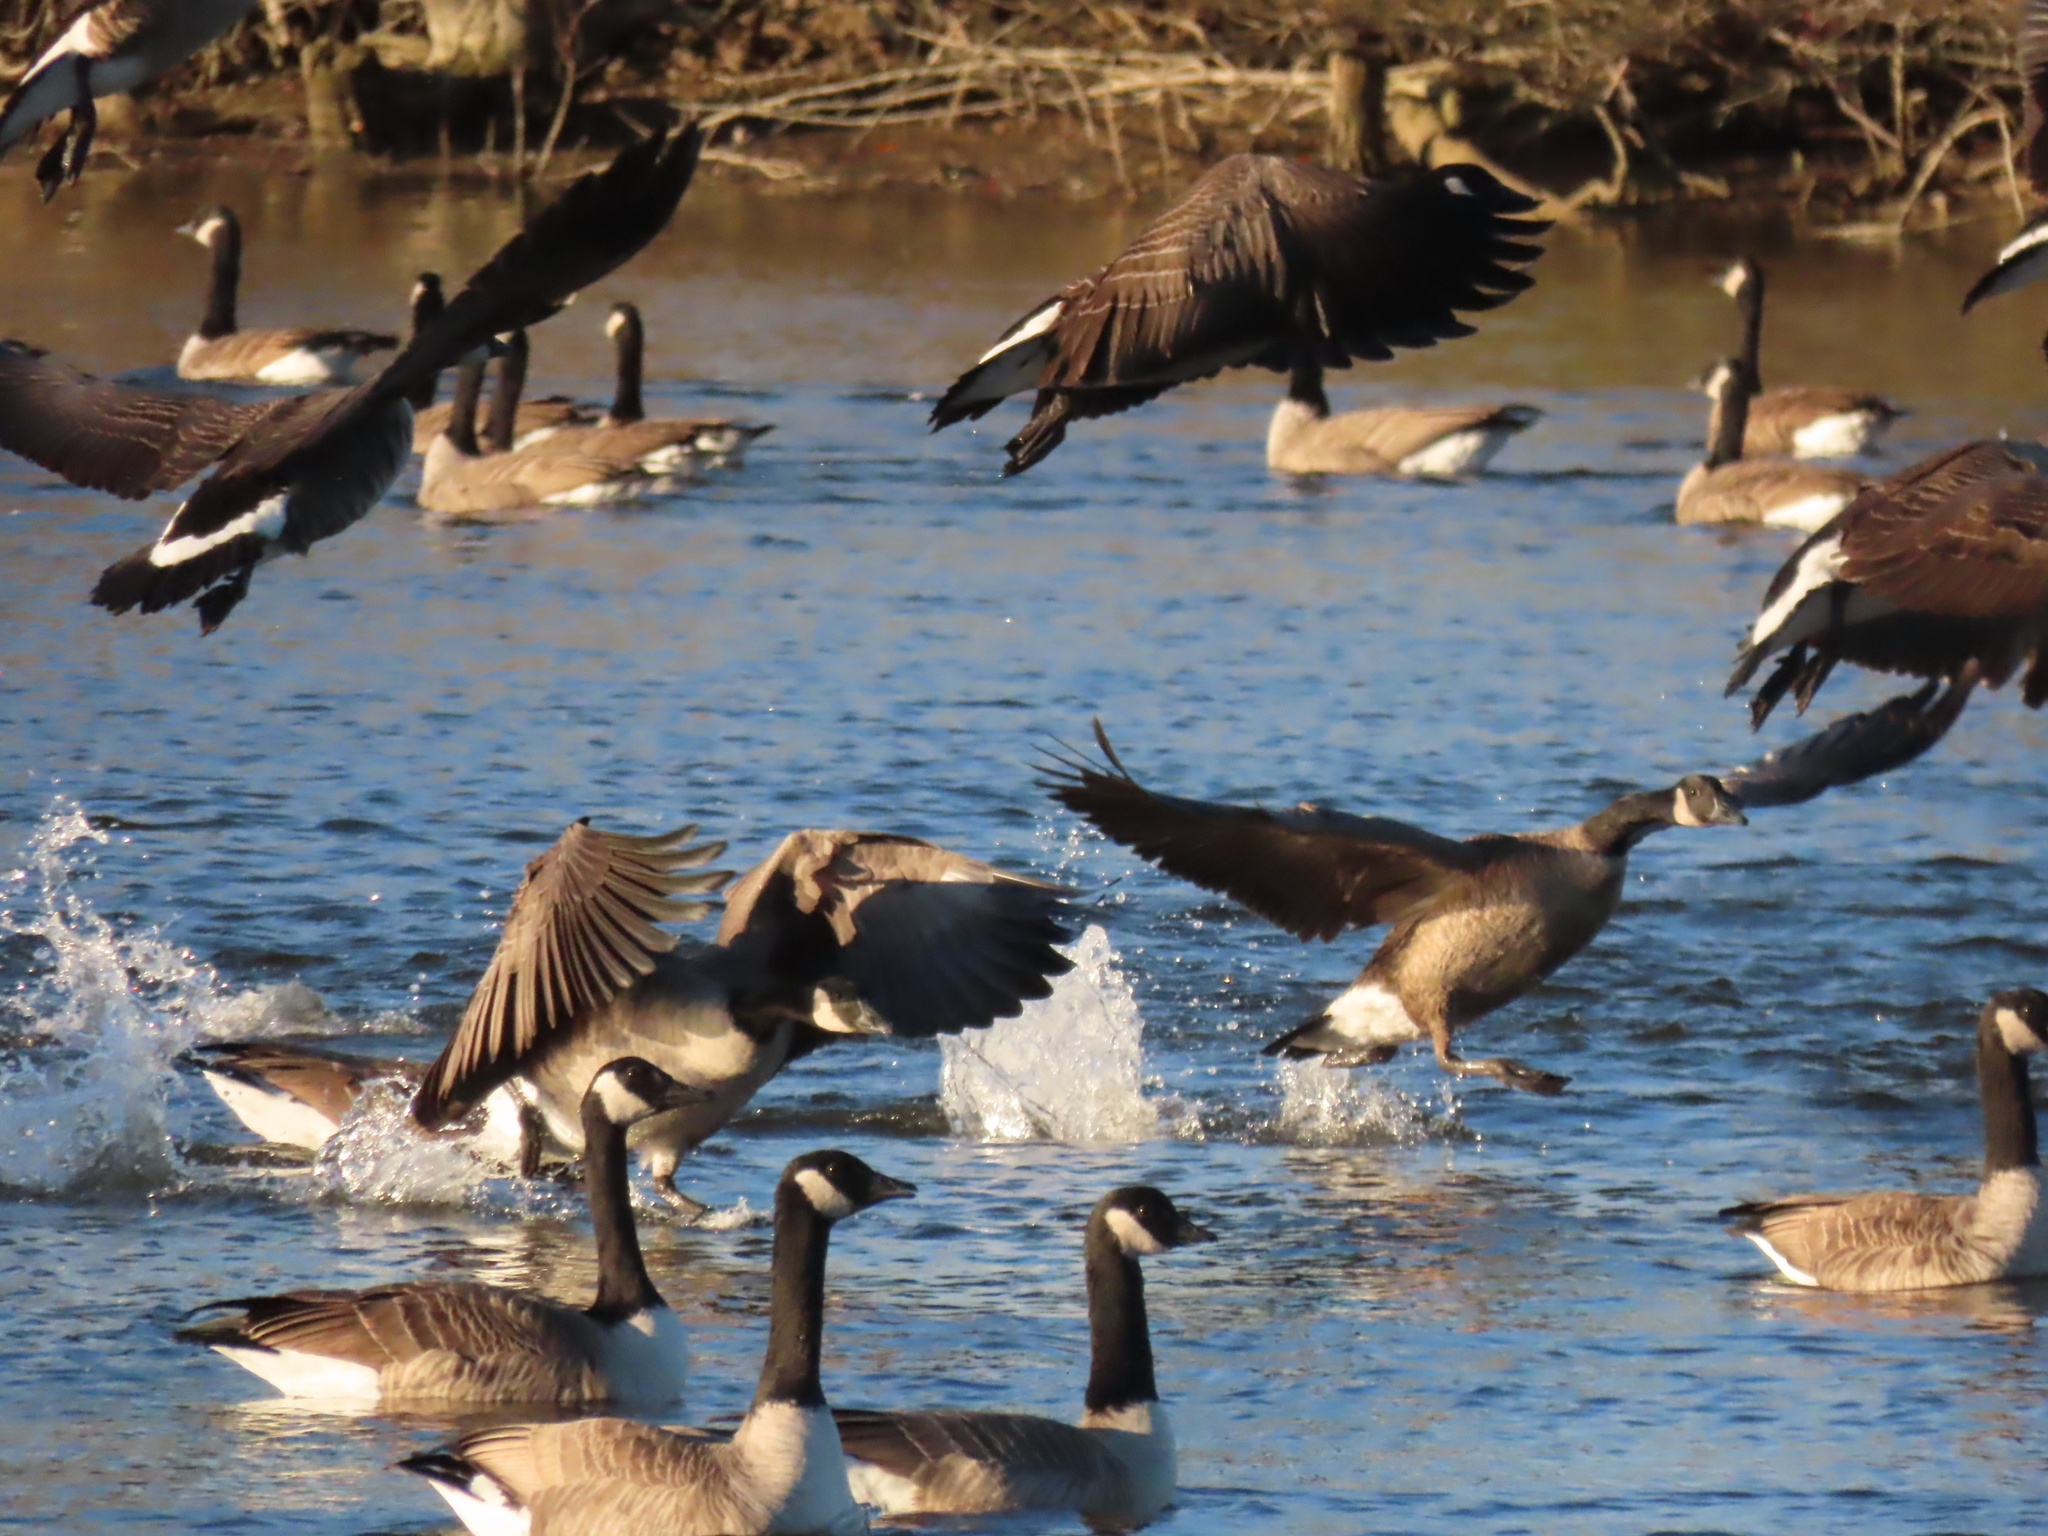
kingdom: Animalia
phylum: Chordata
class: Aves
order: Anseriformes
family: Anatidae
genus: Branta
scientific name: Branta canadensis
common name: Canada goose
